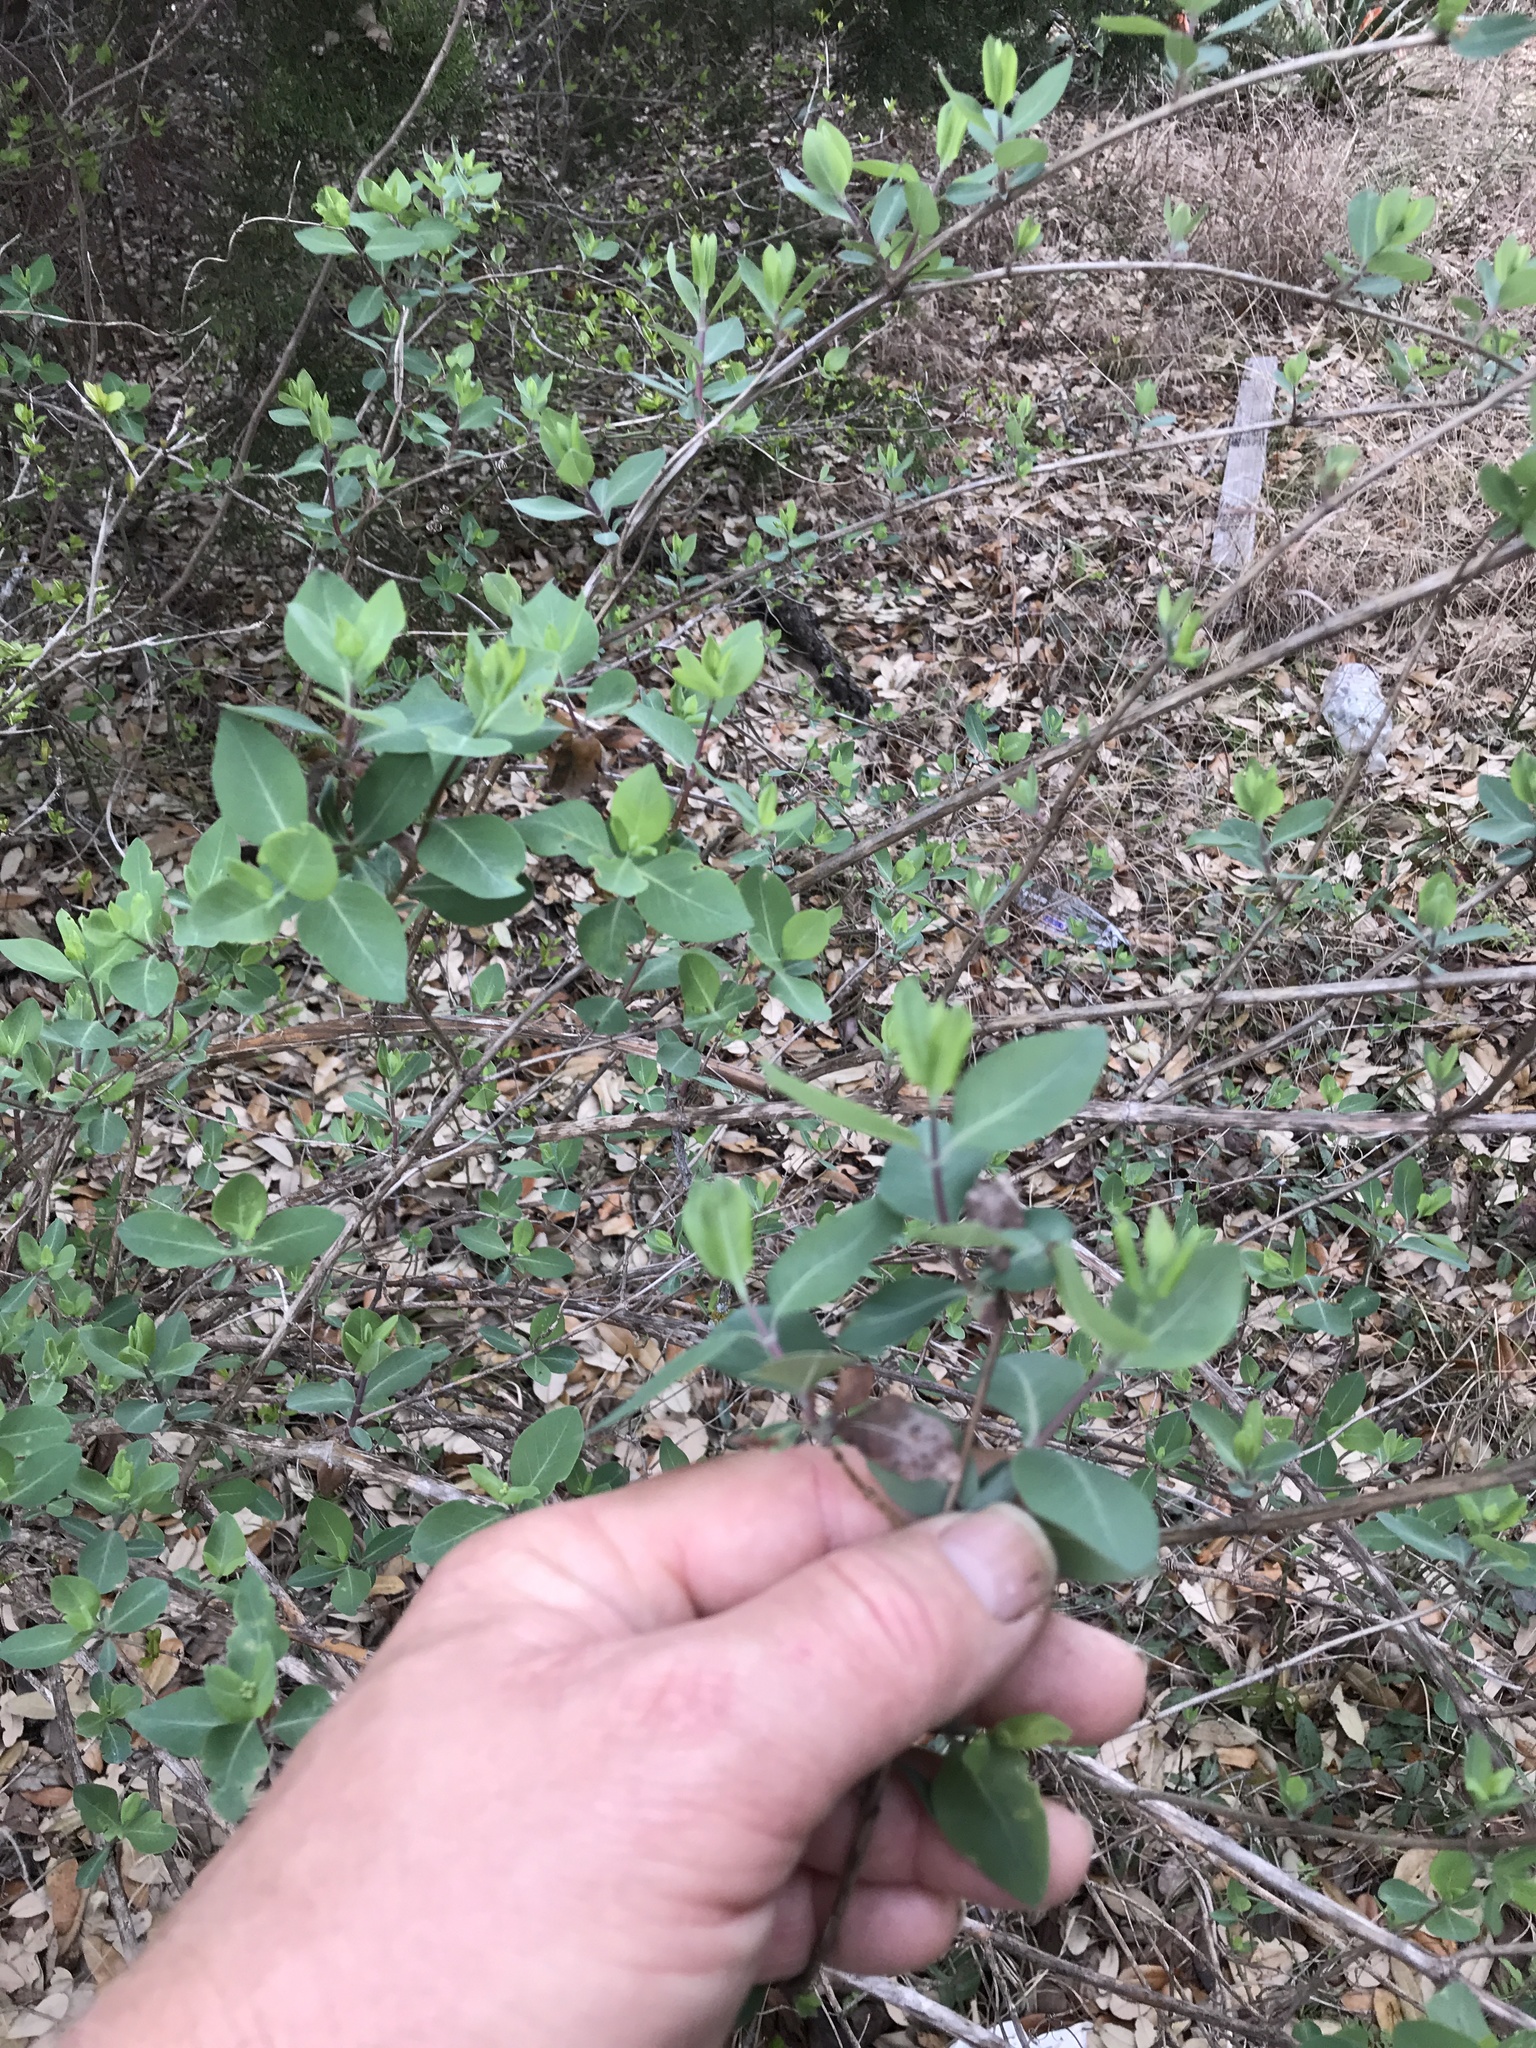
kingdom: Plantae
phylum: Tracheophyta
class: Magnoliopsida
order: Dipsacales
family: Caprifoliaceae
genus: Lonicera
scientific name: Lonicera albiflora
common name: White honeysuckle
